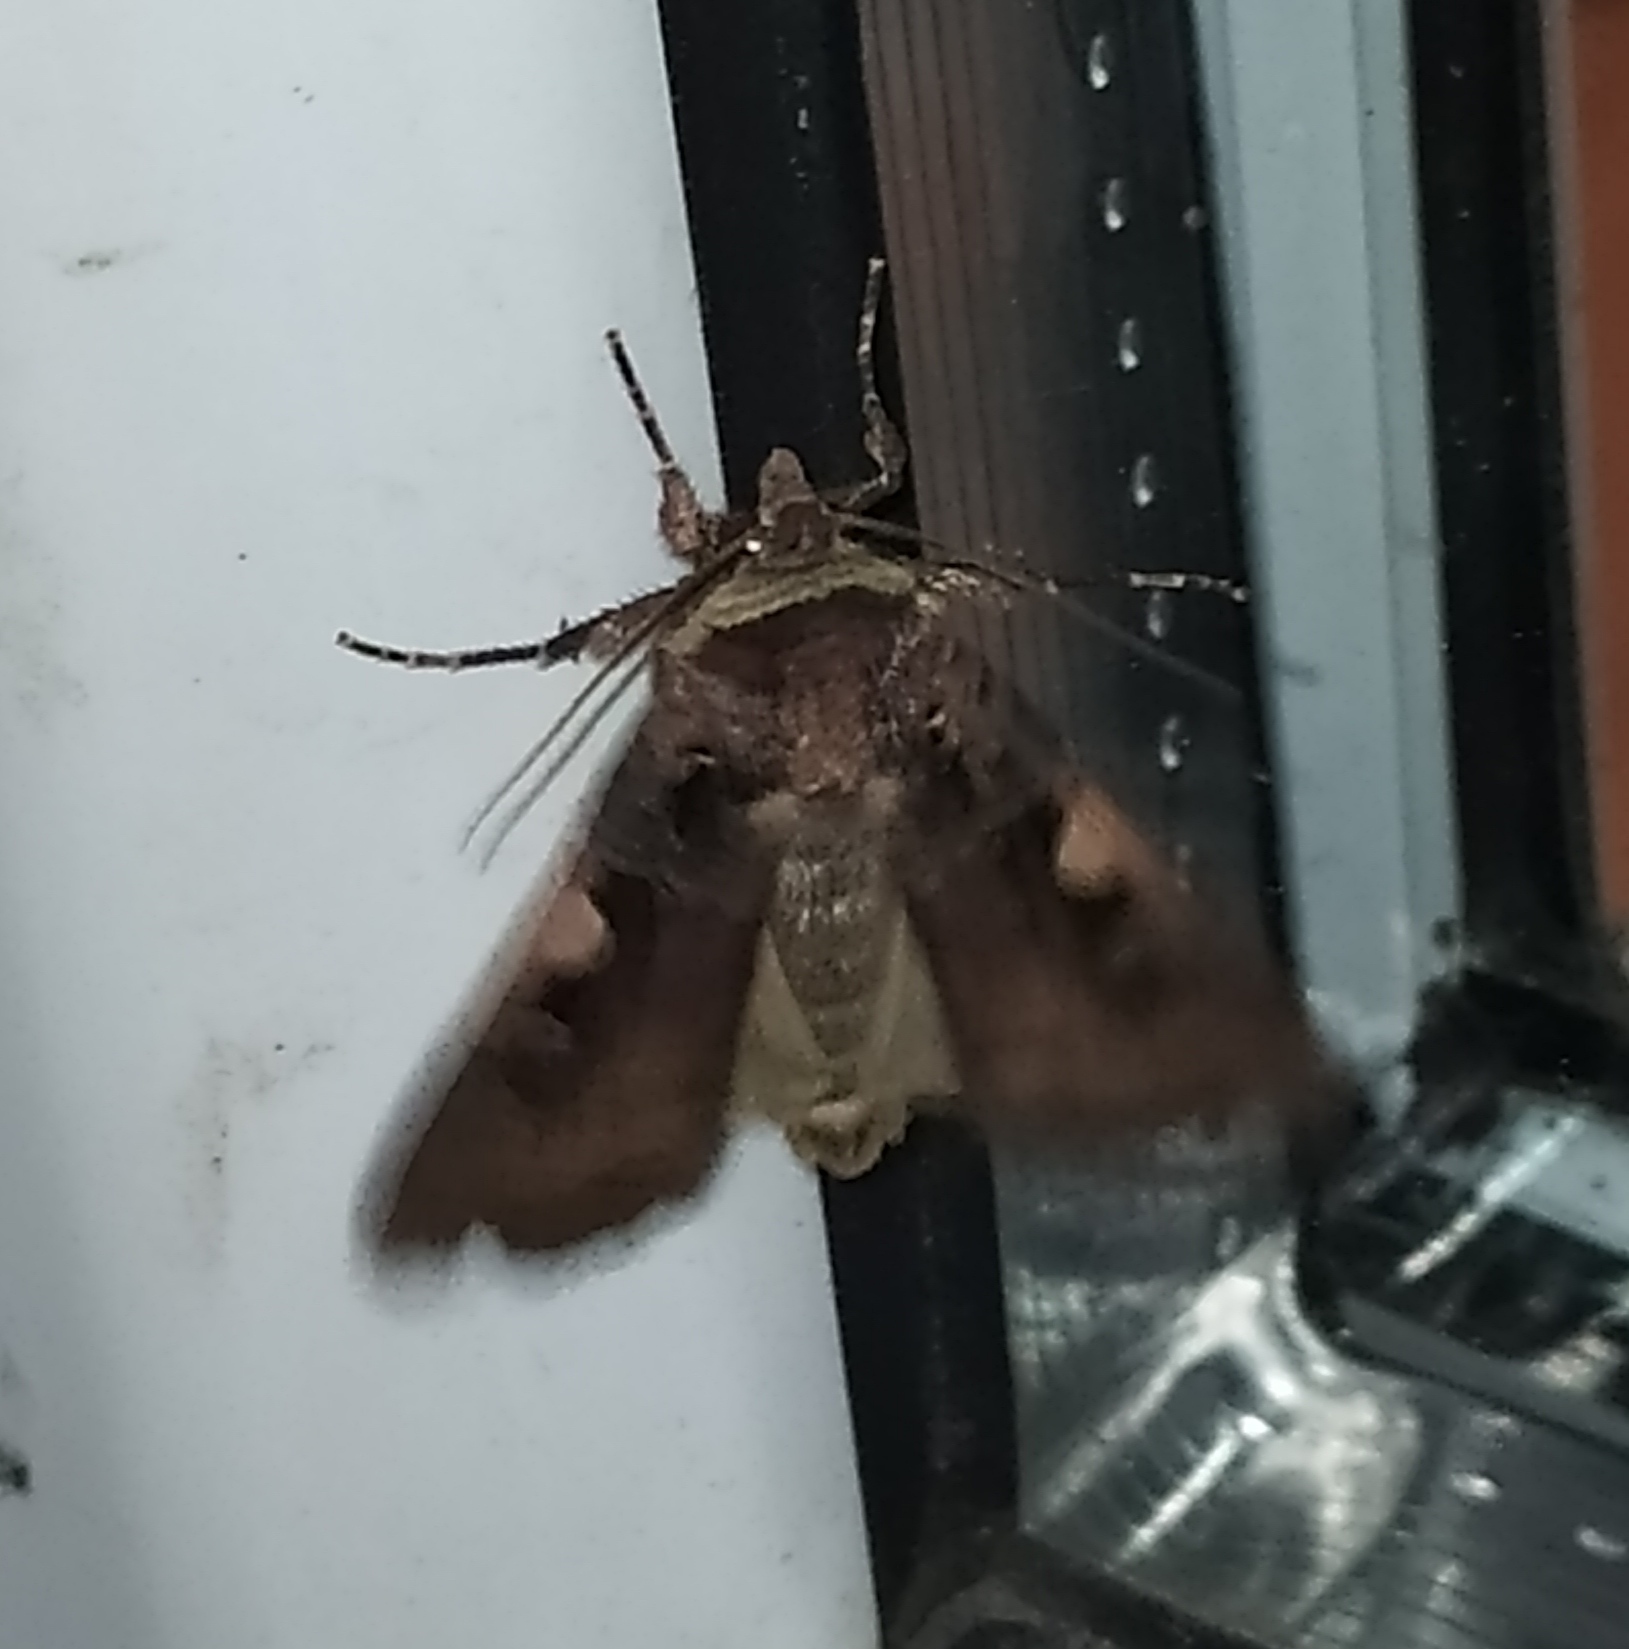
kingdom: Animalia
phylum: Arthropoda
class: Insecta
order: Lepidoptera
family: Noctuidae
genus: Xestia
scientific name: Xestia c-nigrum
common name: Setaceous hebrew character
